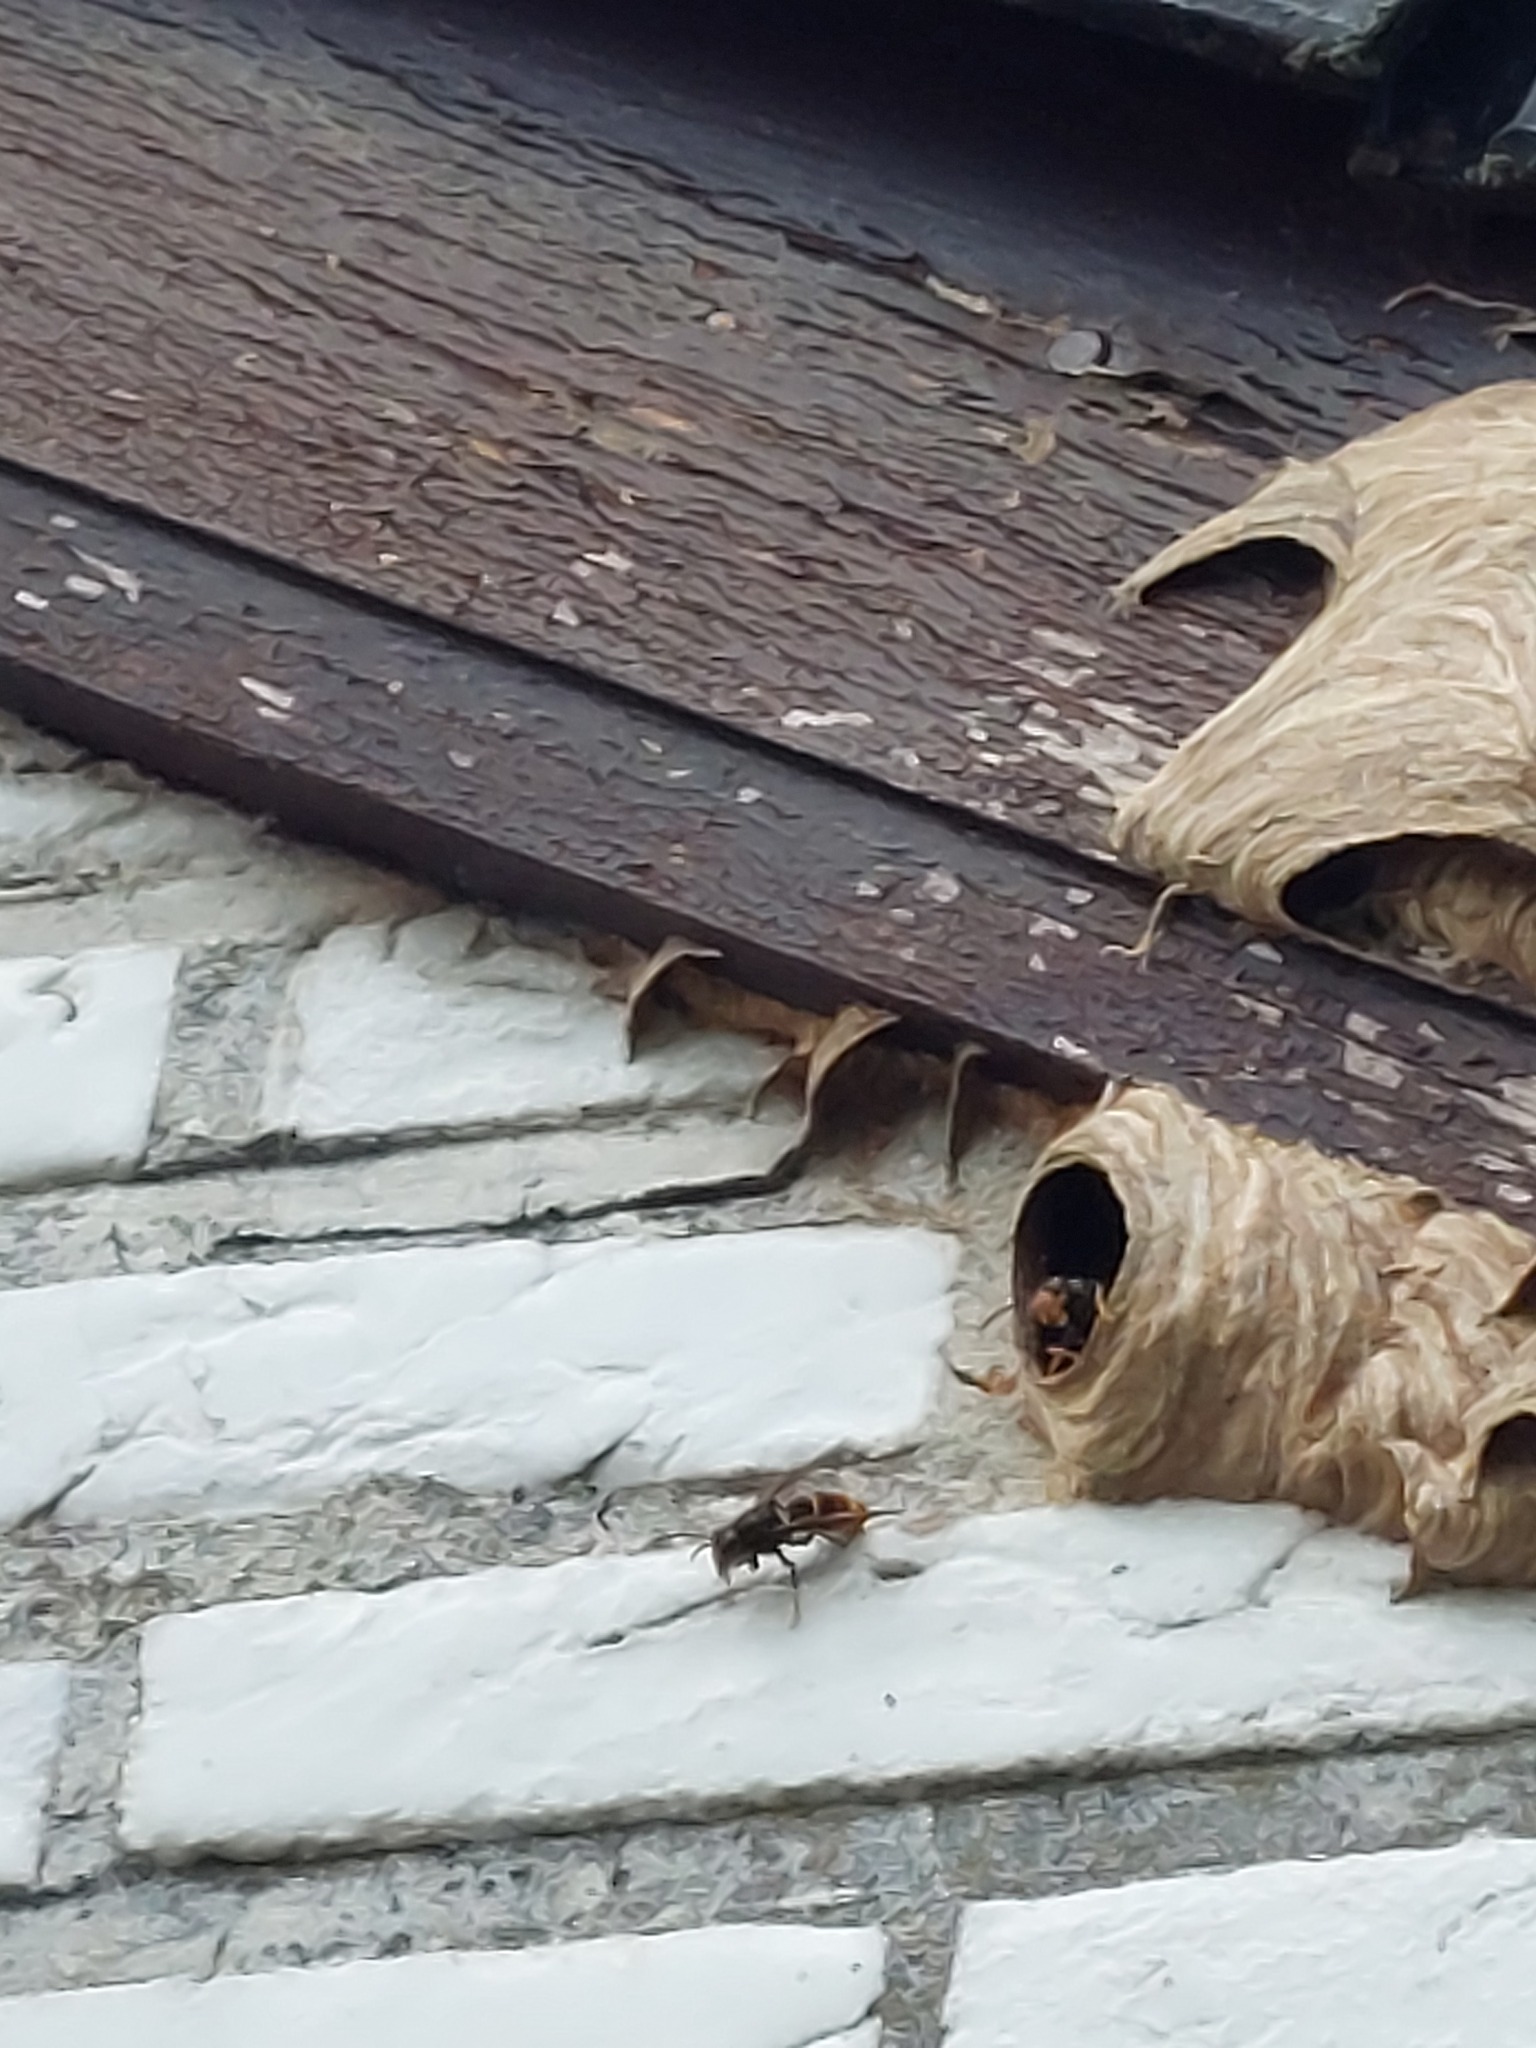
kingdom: Animalia
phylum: Arthropoda
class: Insecta
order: Hymenoptera
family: Vespidae
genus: Vespa
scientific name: Vespa velutina
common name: Asian hornet
